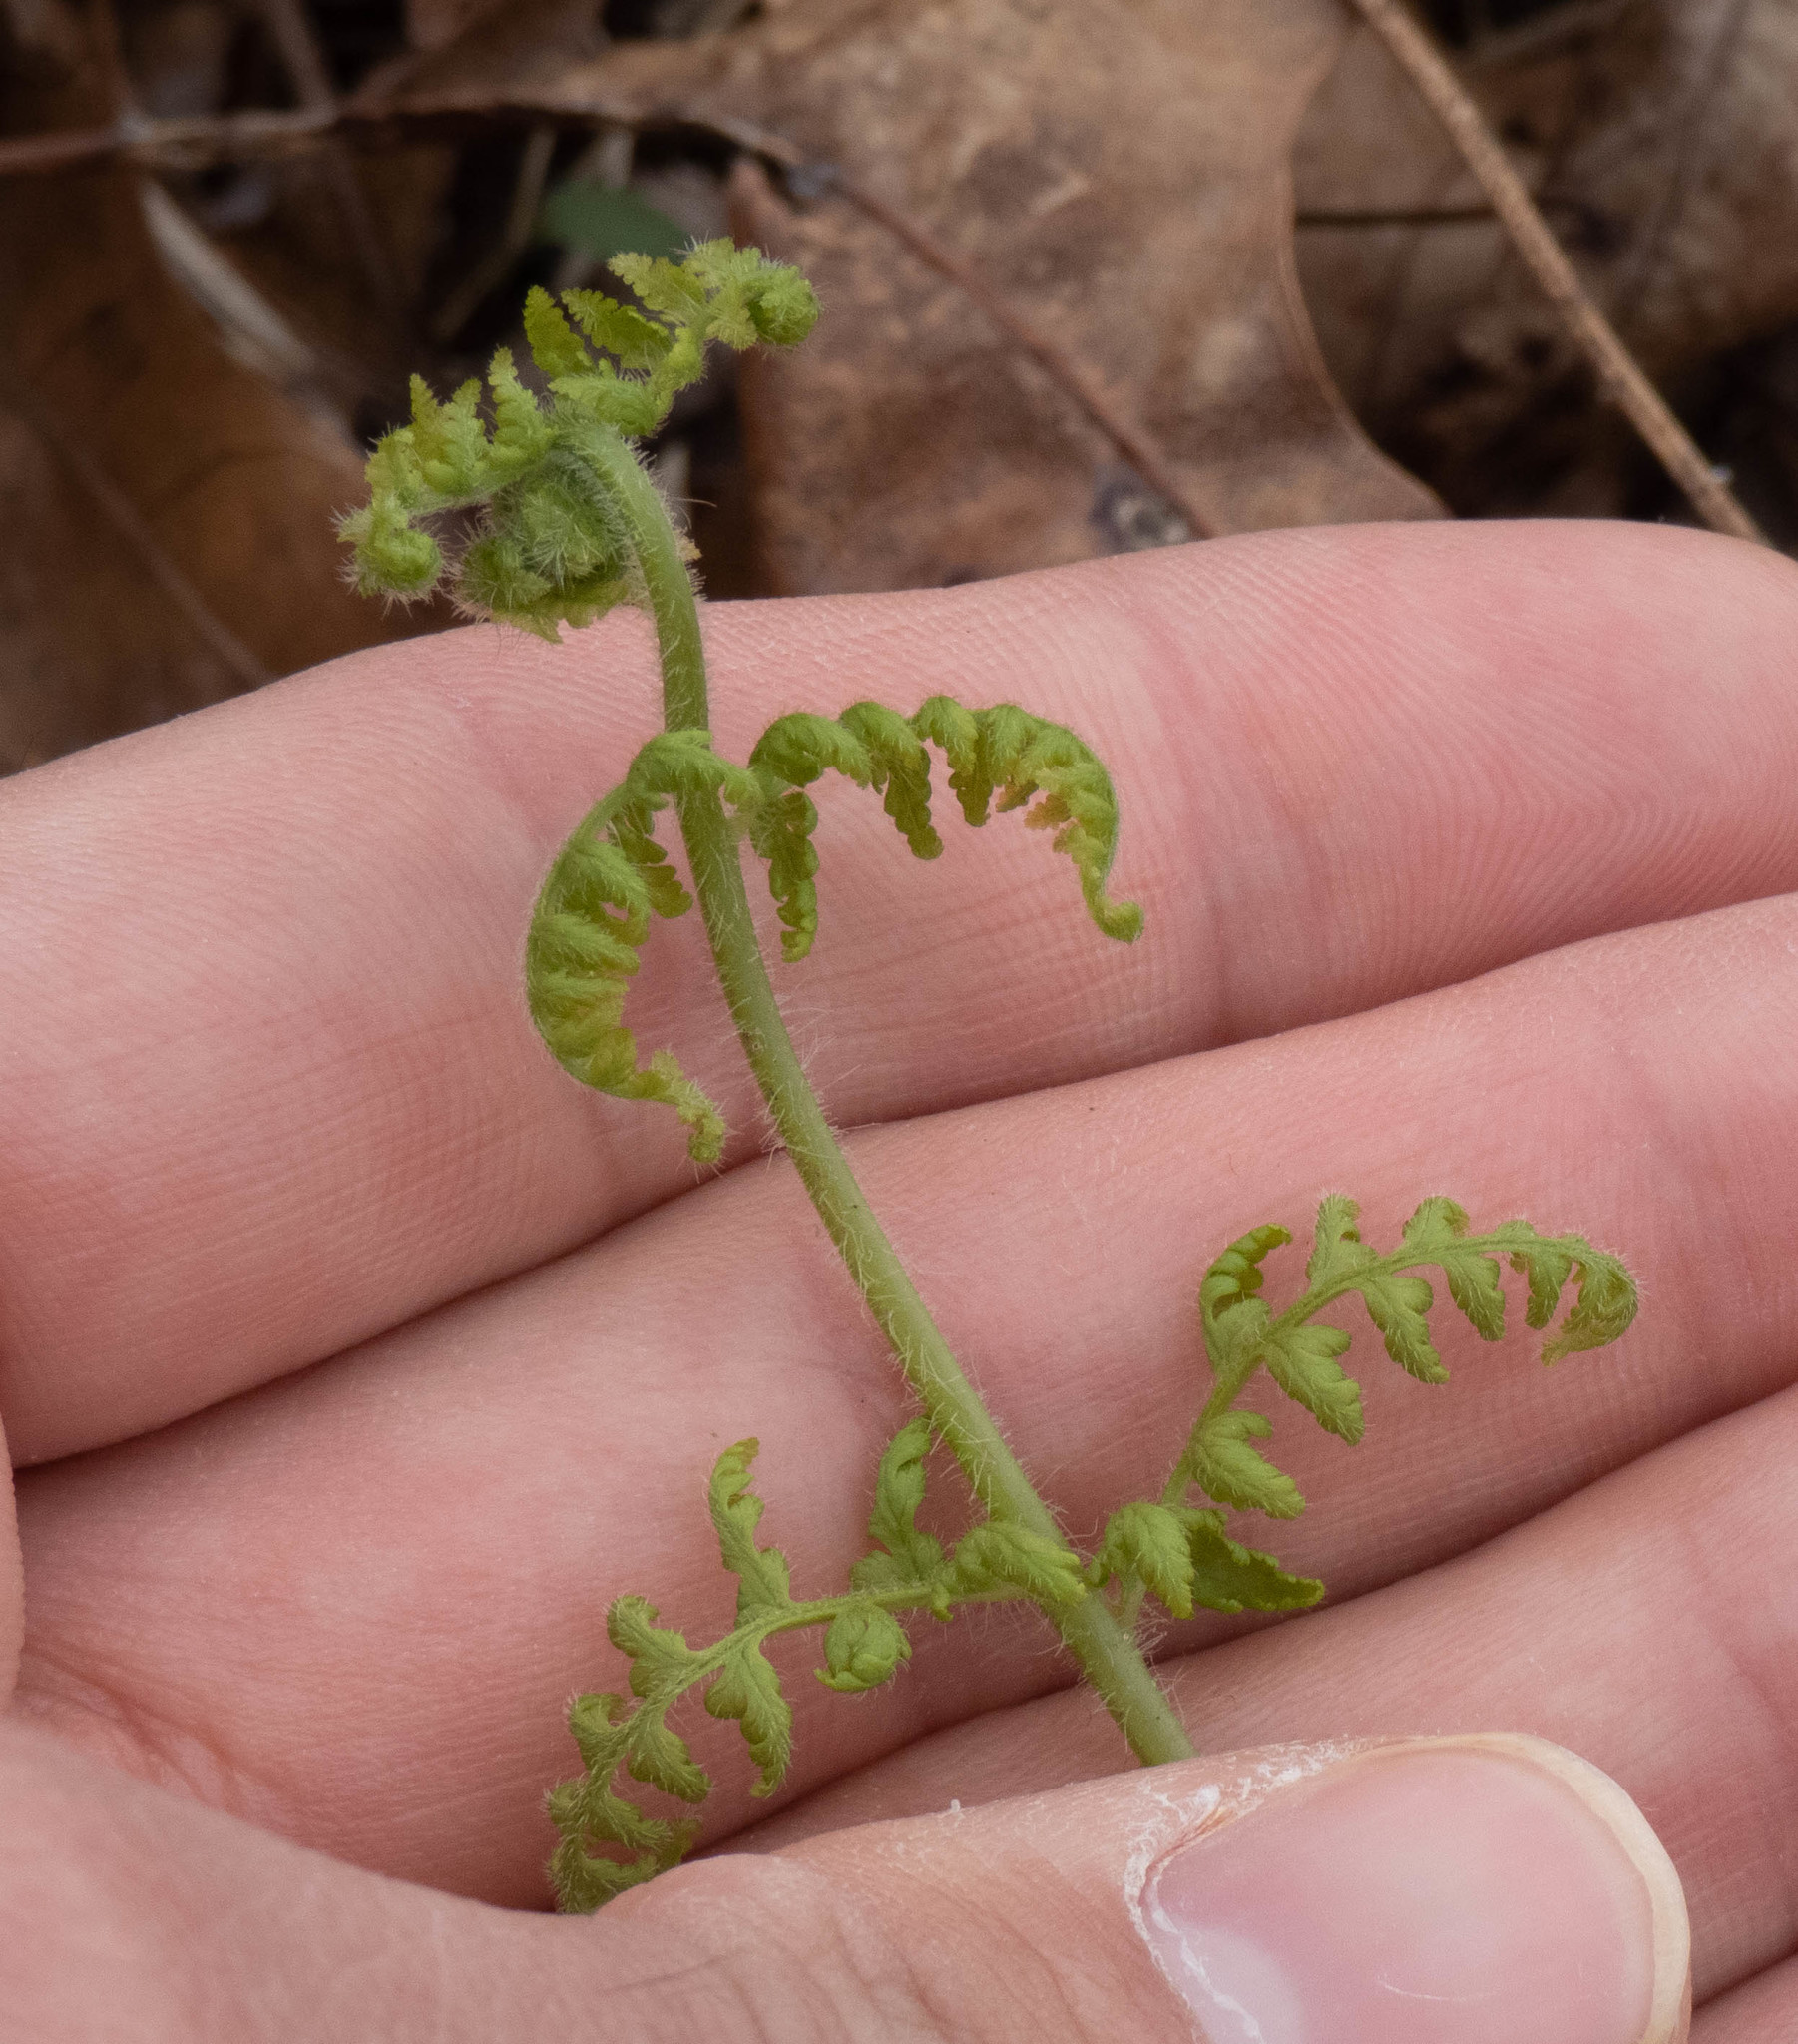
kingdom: Plantae
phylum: Tracheophyta
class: Polypodiopsida
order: Polypodiales
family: Dennstaedtiaceae
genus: Sitobolium
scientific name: Sitobolium punctilobum
